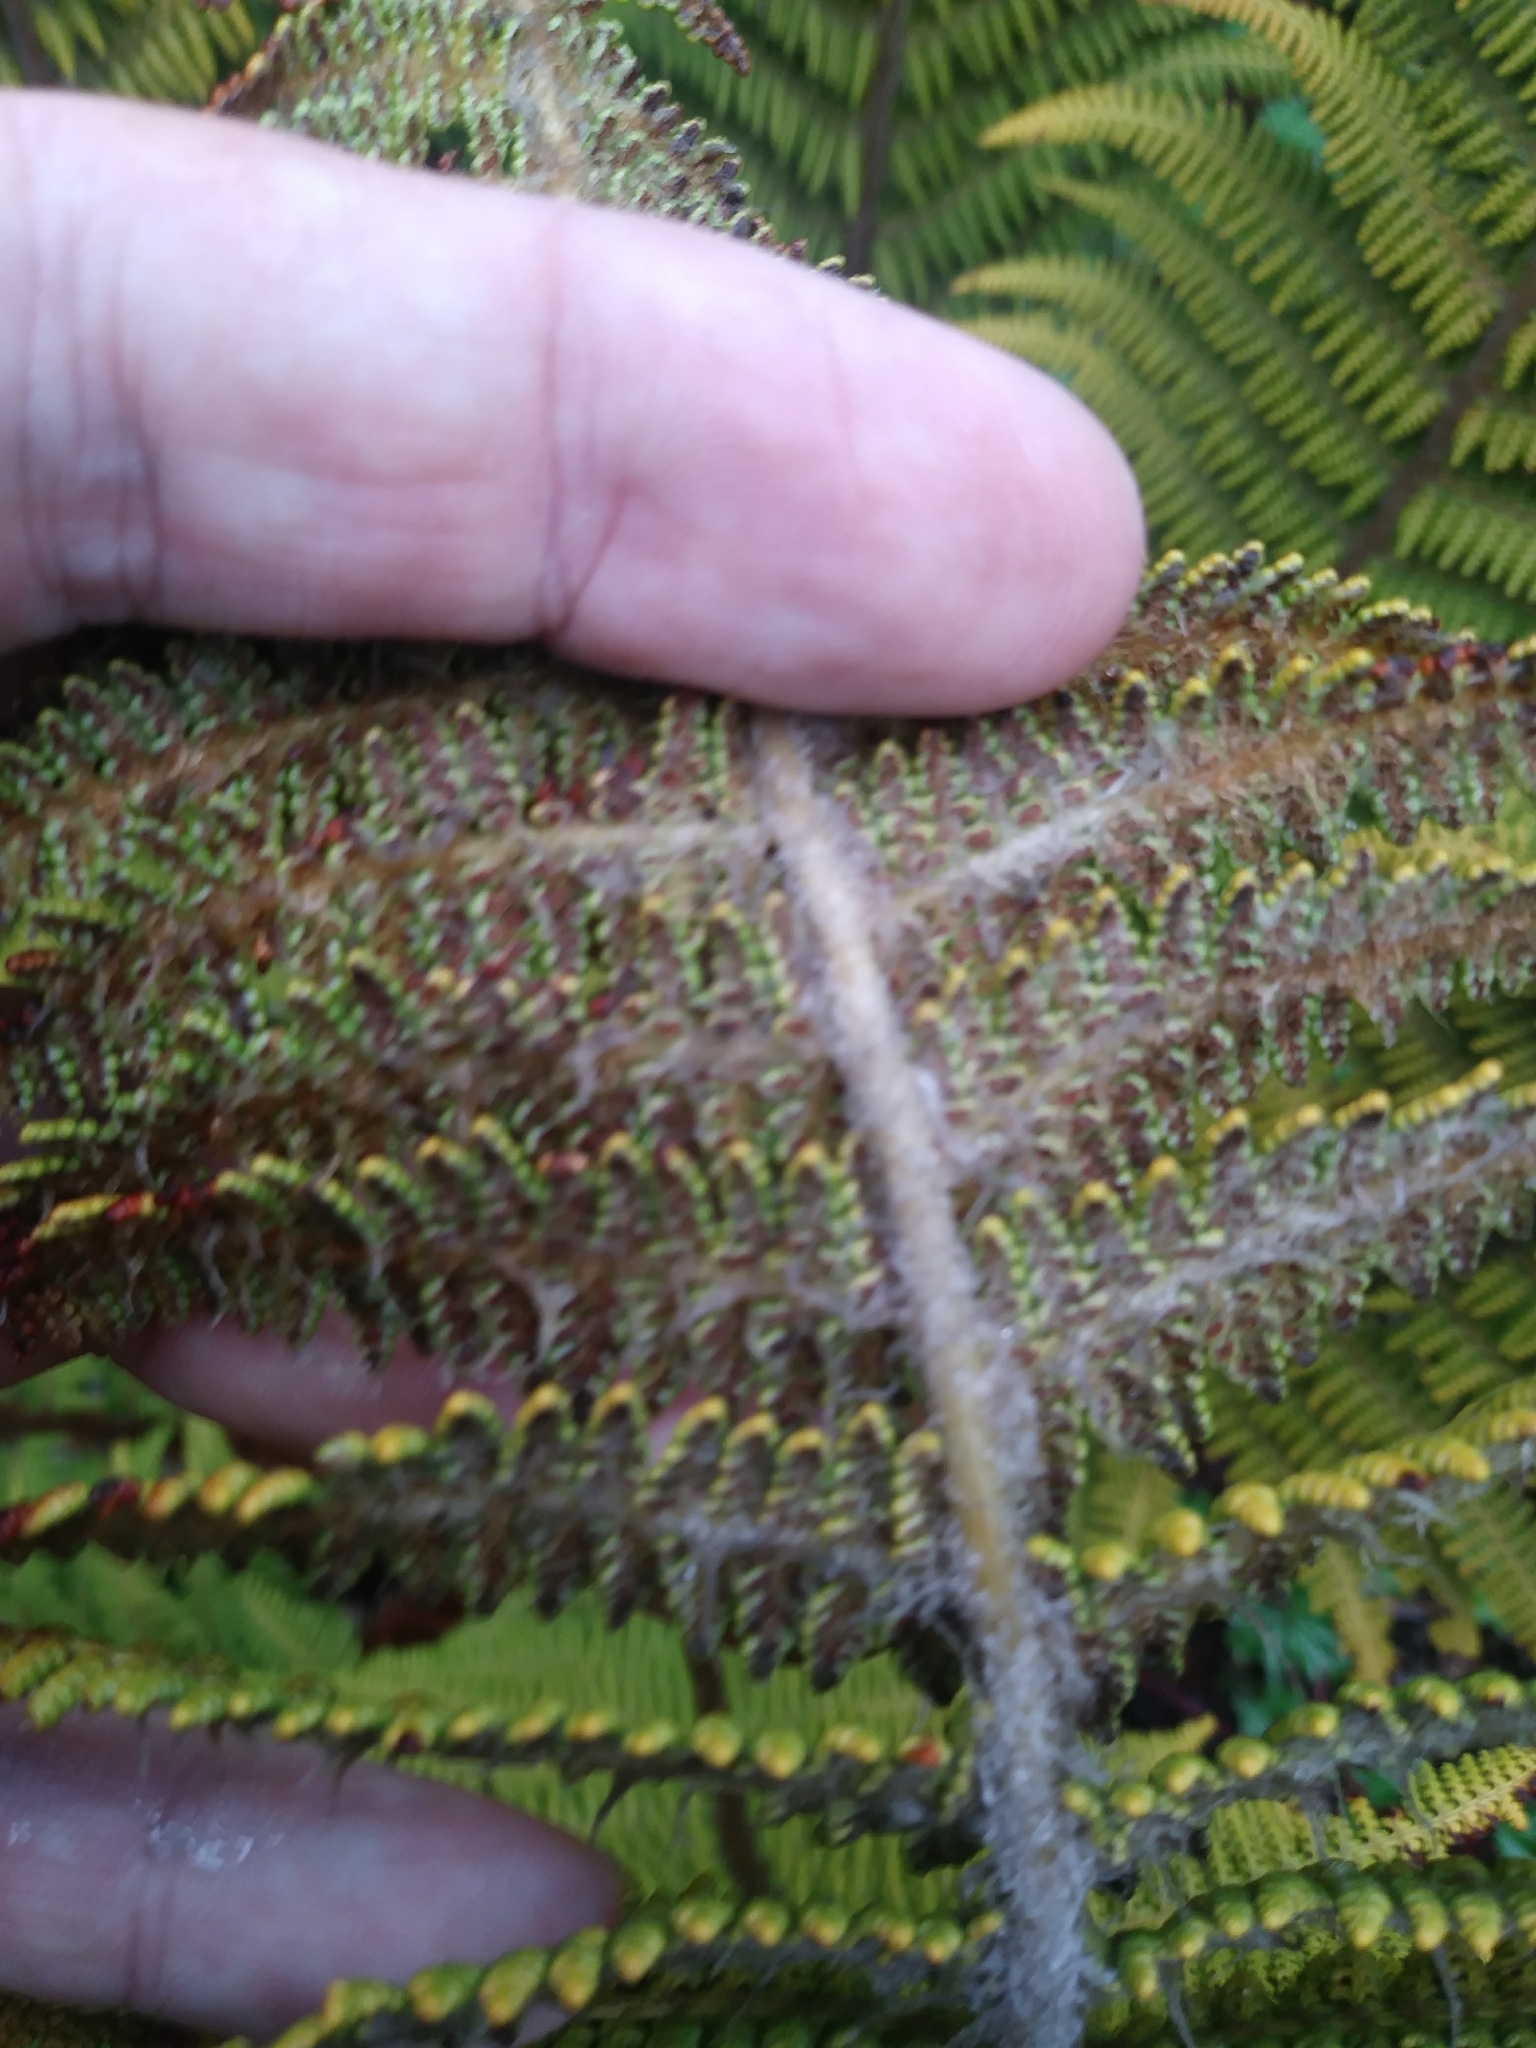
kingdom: Plantae
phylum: Tracheophyta
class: Polypodiopsida
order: Polypodiales
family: Dryopteridaceae
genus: Polystichum
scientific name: Polystichum speciosissimum
